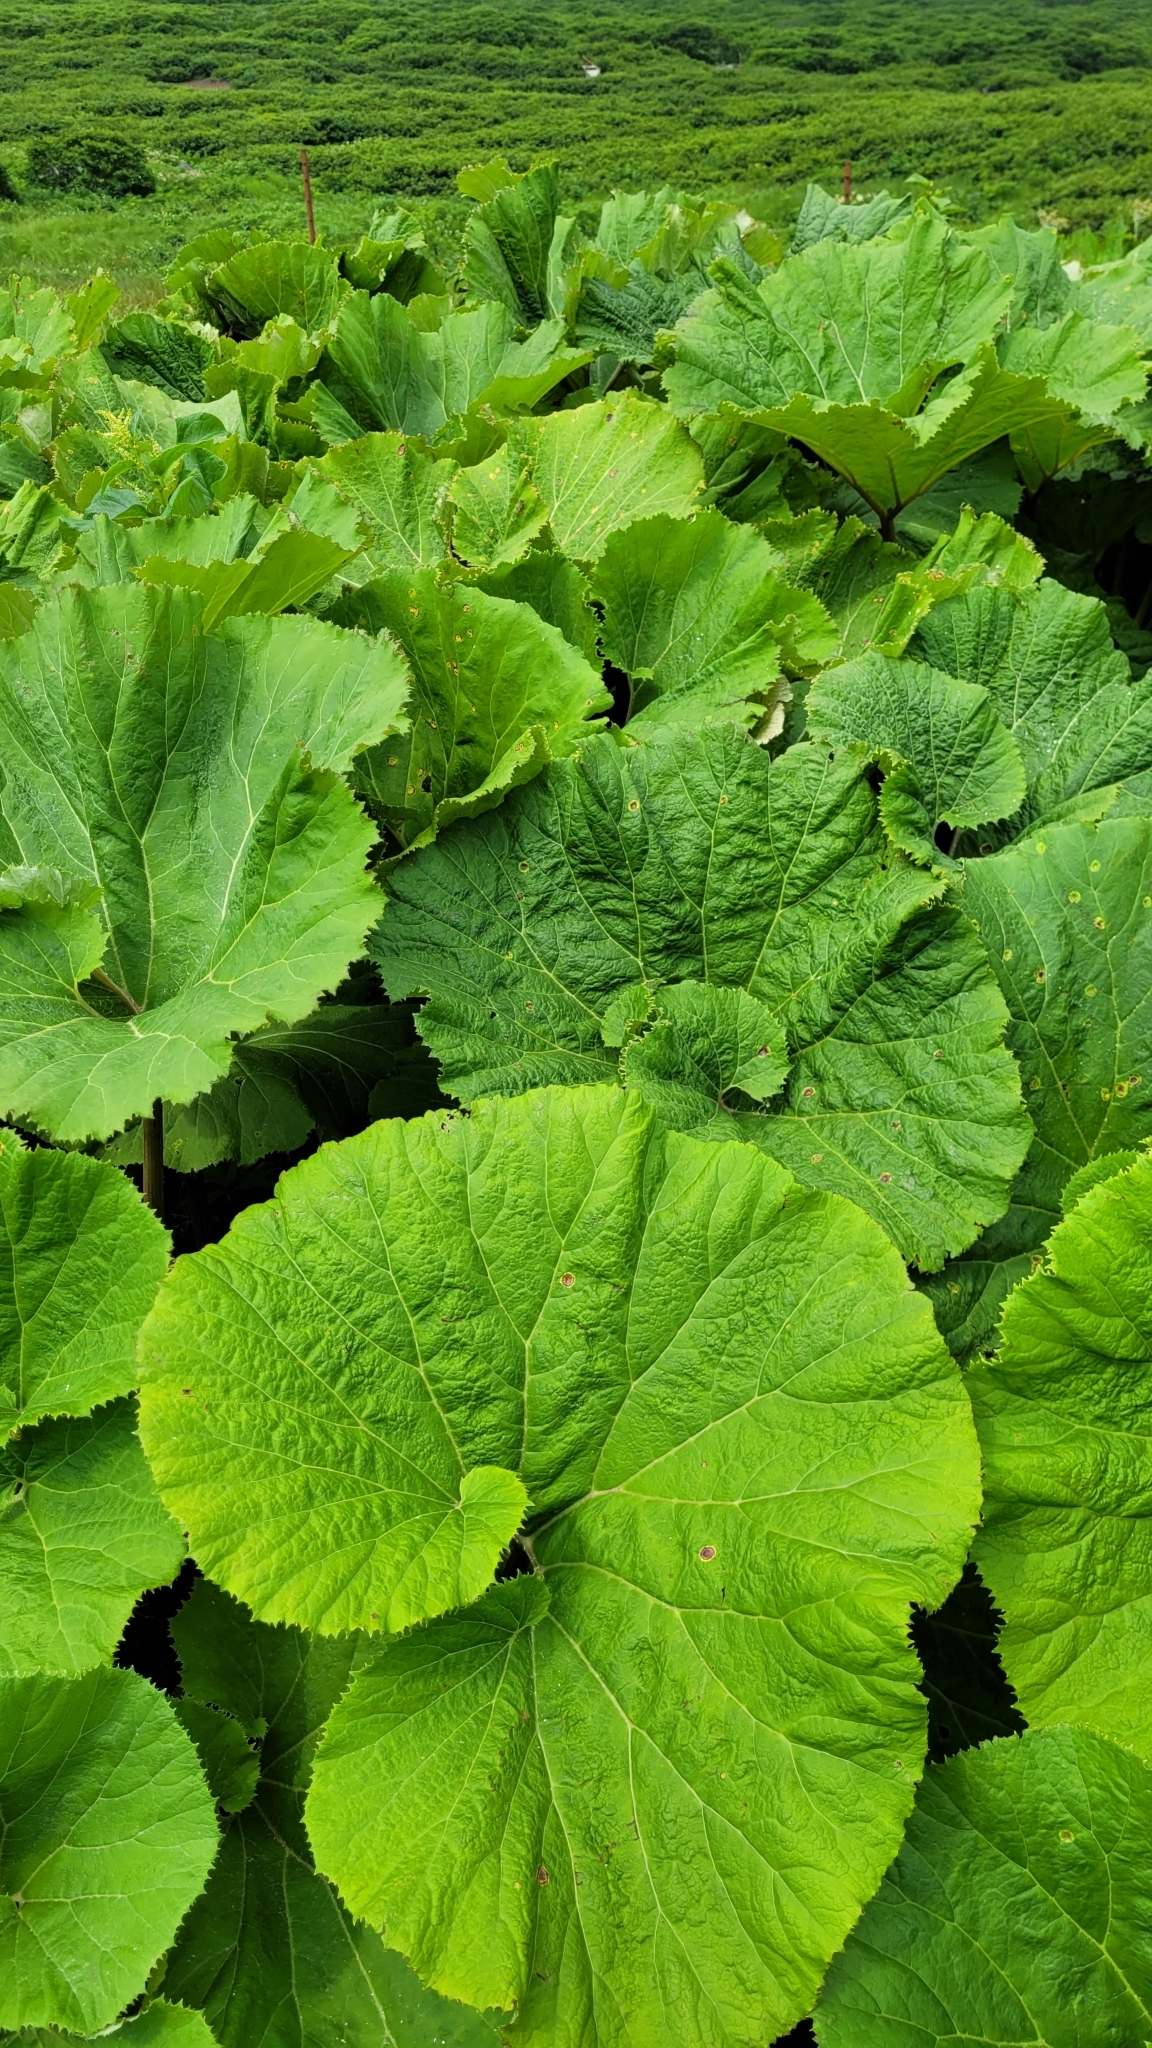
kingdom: Plantae
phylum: Tracheophyta
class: Magnoliopsida
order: Asterales
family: Asteraceae
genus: Petasites
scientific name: Petasites japonicus
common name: Giant butterbur
